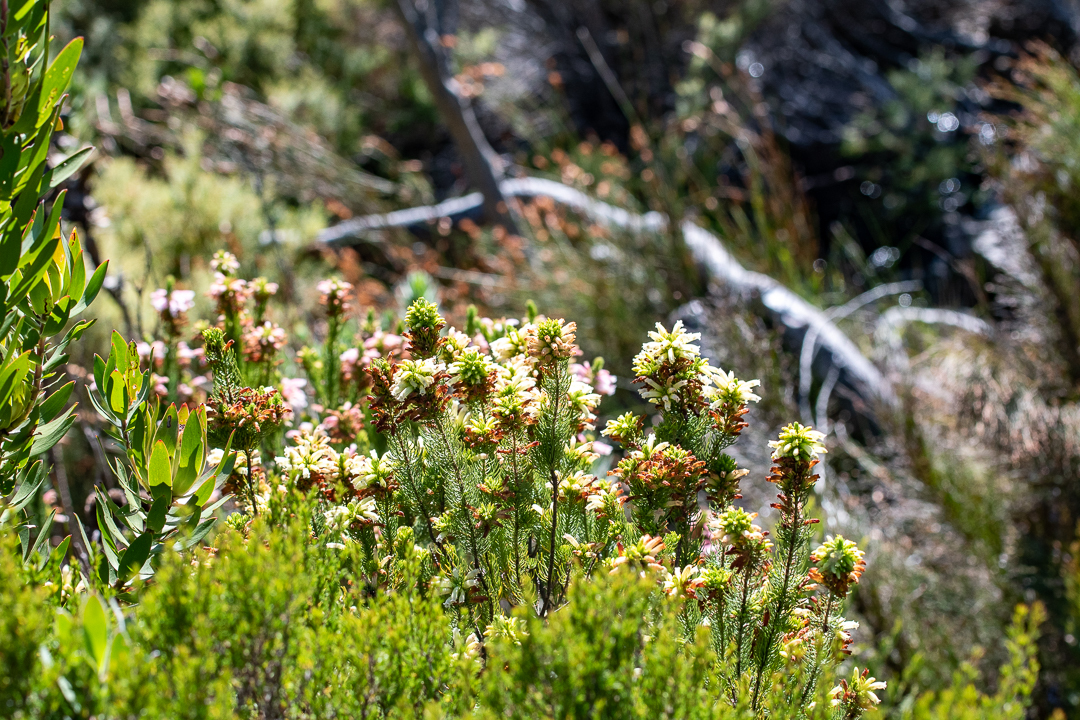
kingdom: Plantae
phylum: Tracheophyta
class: Magnoliopsida
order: Ericales
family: Ericaceae
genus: Erica
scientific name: Erica viscaria
